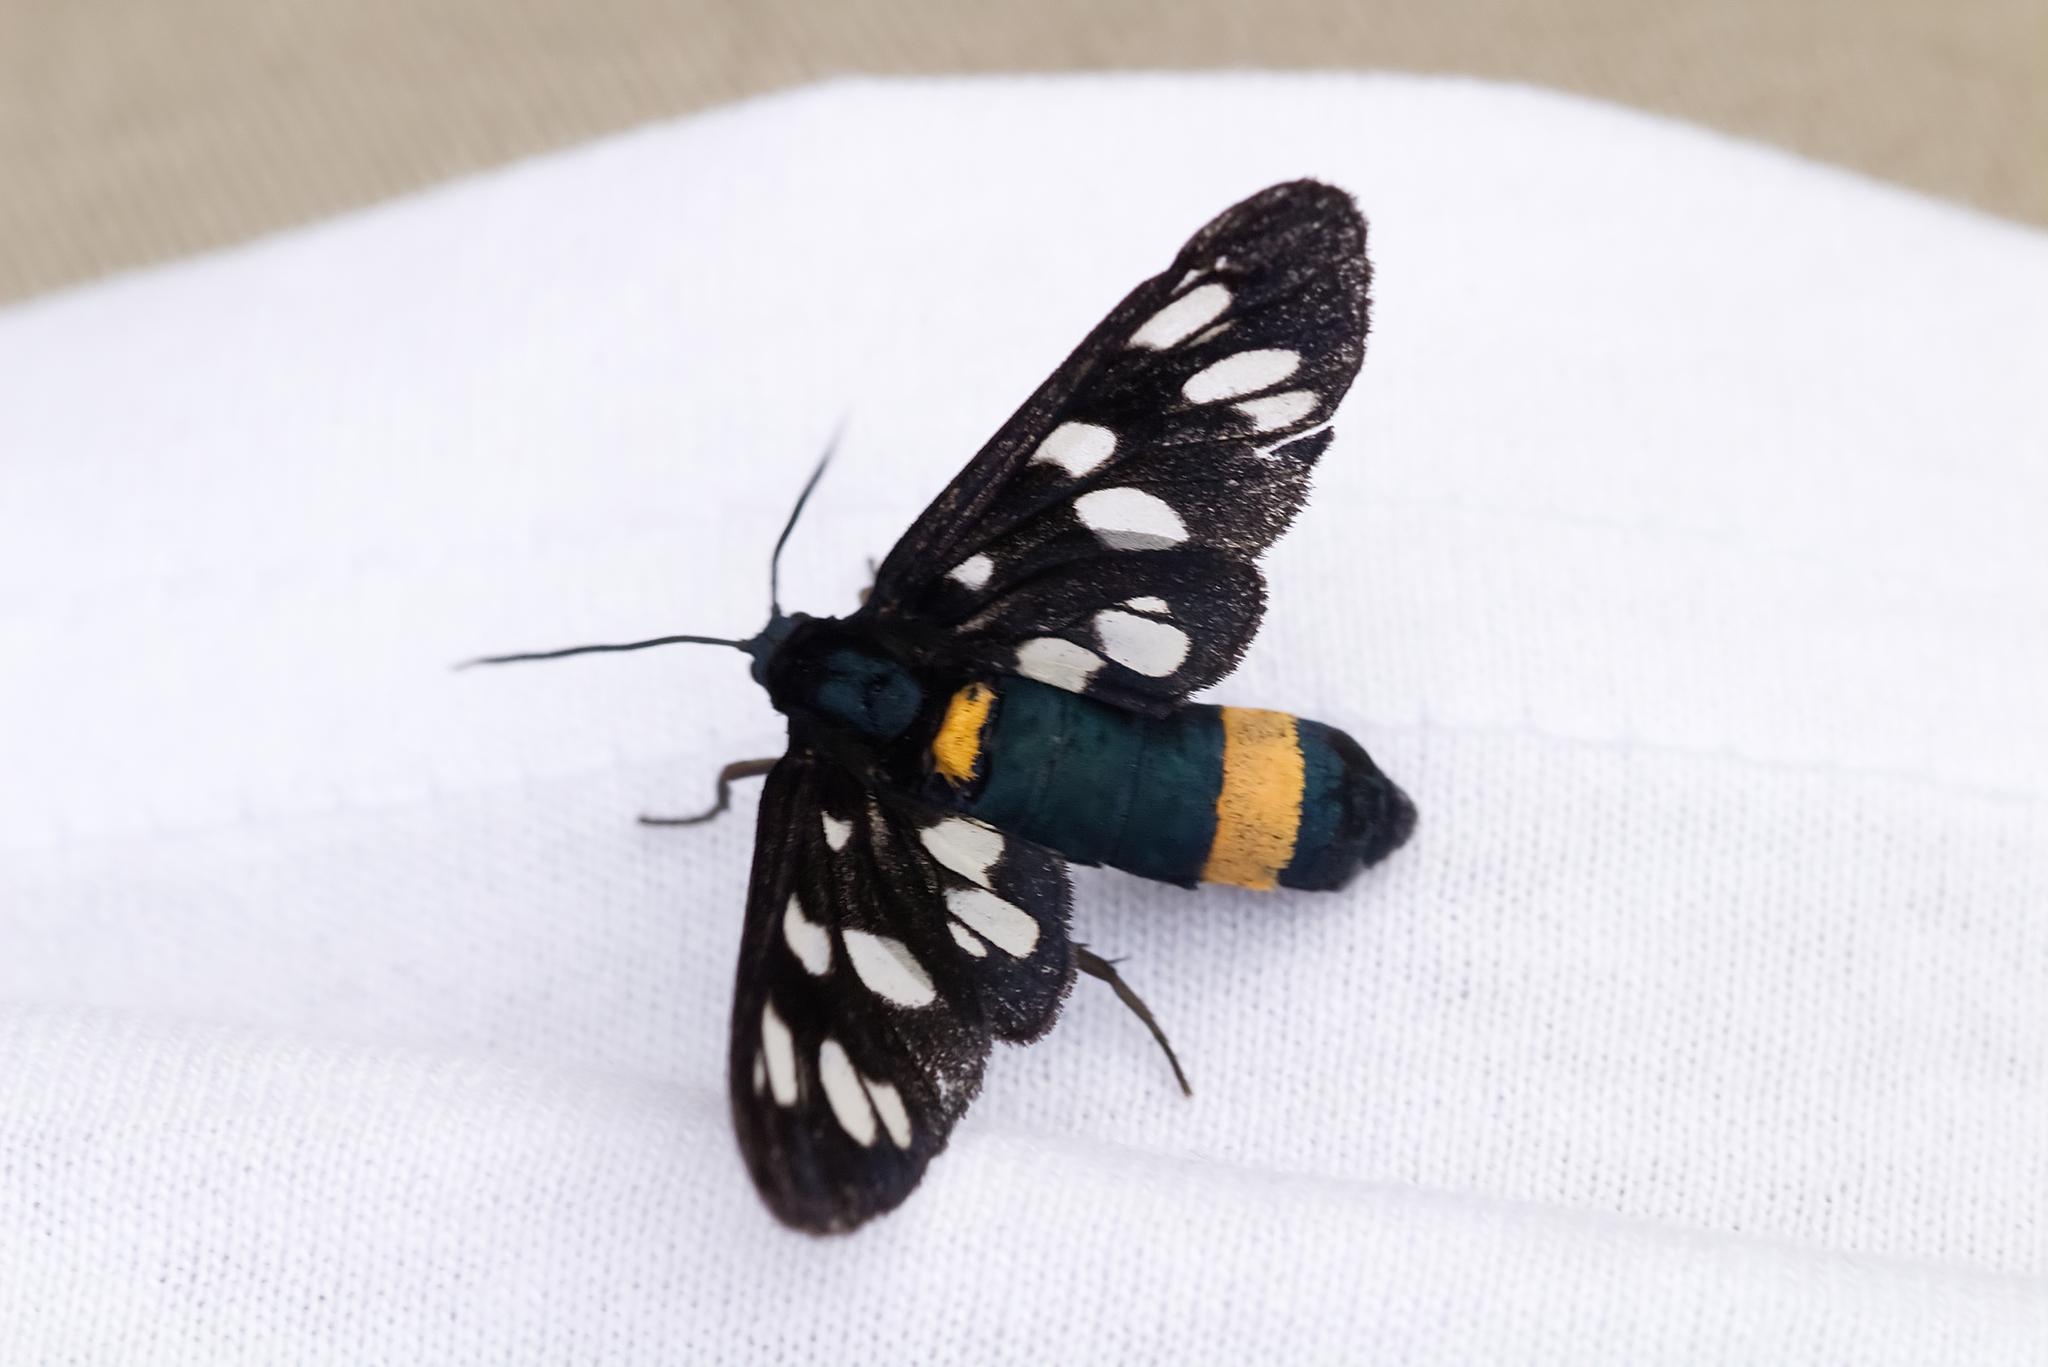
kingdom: Animalia
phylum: Arthropoda
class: Insecta
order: Lepidoptera
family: Erebidae
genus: Amata
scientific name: Amata phegea
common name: Nine-spotted
